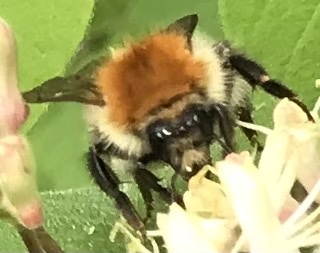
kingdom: Animalia
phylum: Arthropoda
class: Insecta
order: Hymenoptera
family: Apidae
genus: Bombus
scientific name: Bombus pascuorum
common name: Common carder bee
